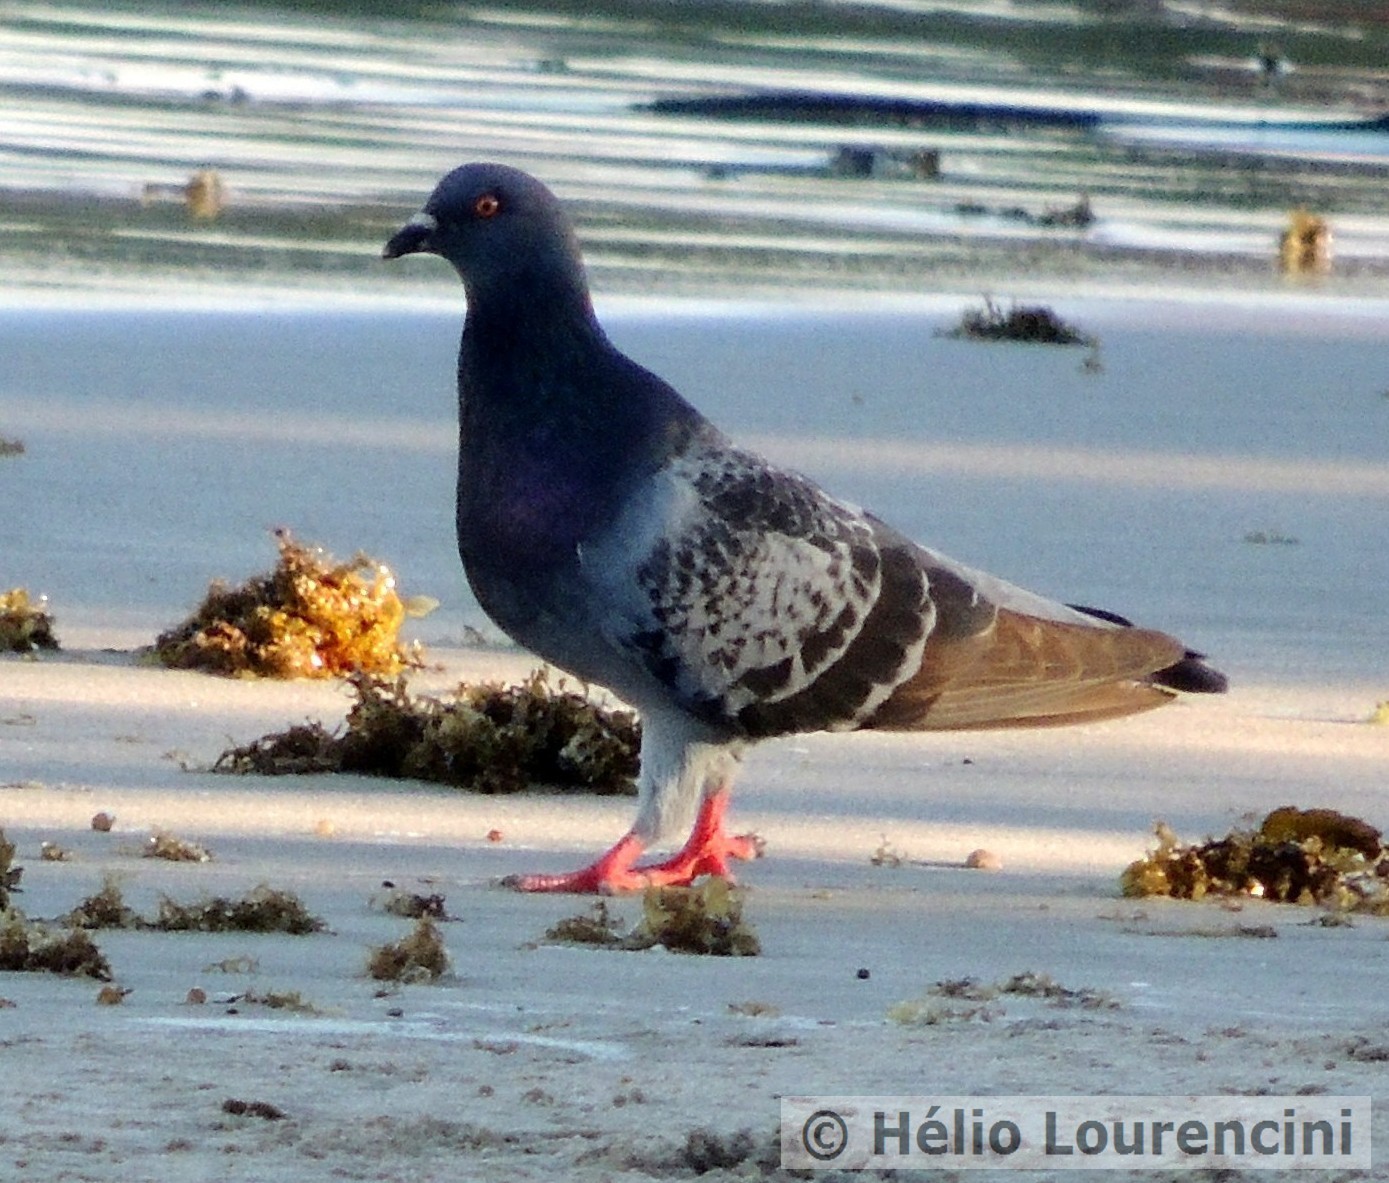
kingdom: Animalia
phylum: Chordata
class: Aves
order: Columbiformes
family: Columbidae
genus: Columba
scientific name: Columba livia
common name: Rock pigeon
